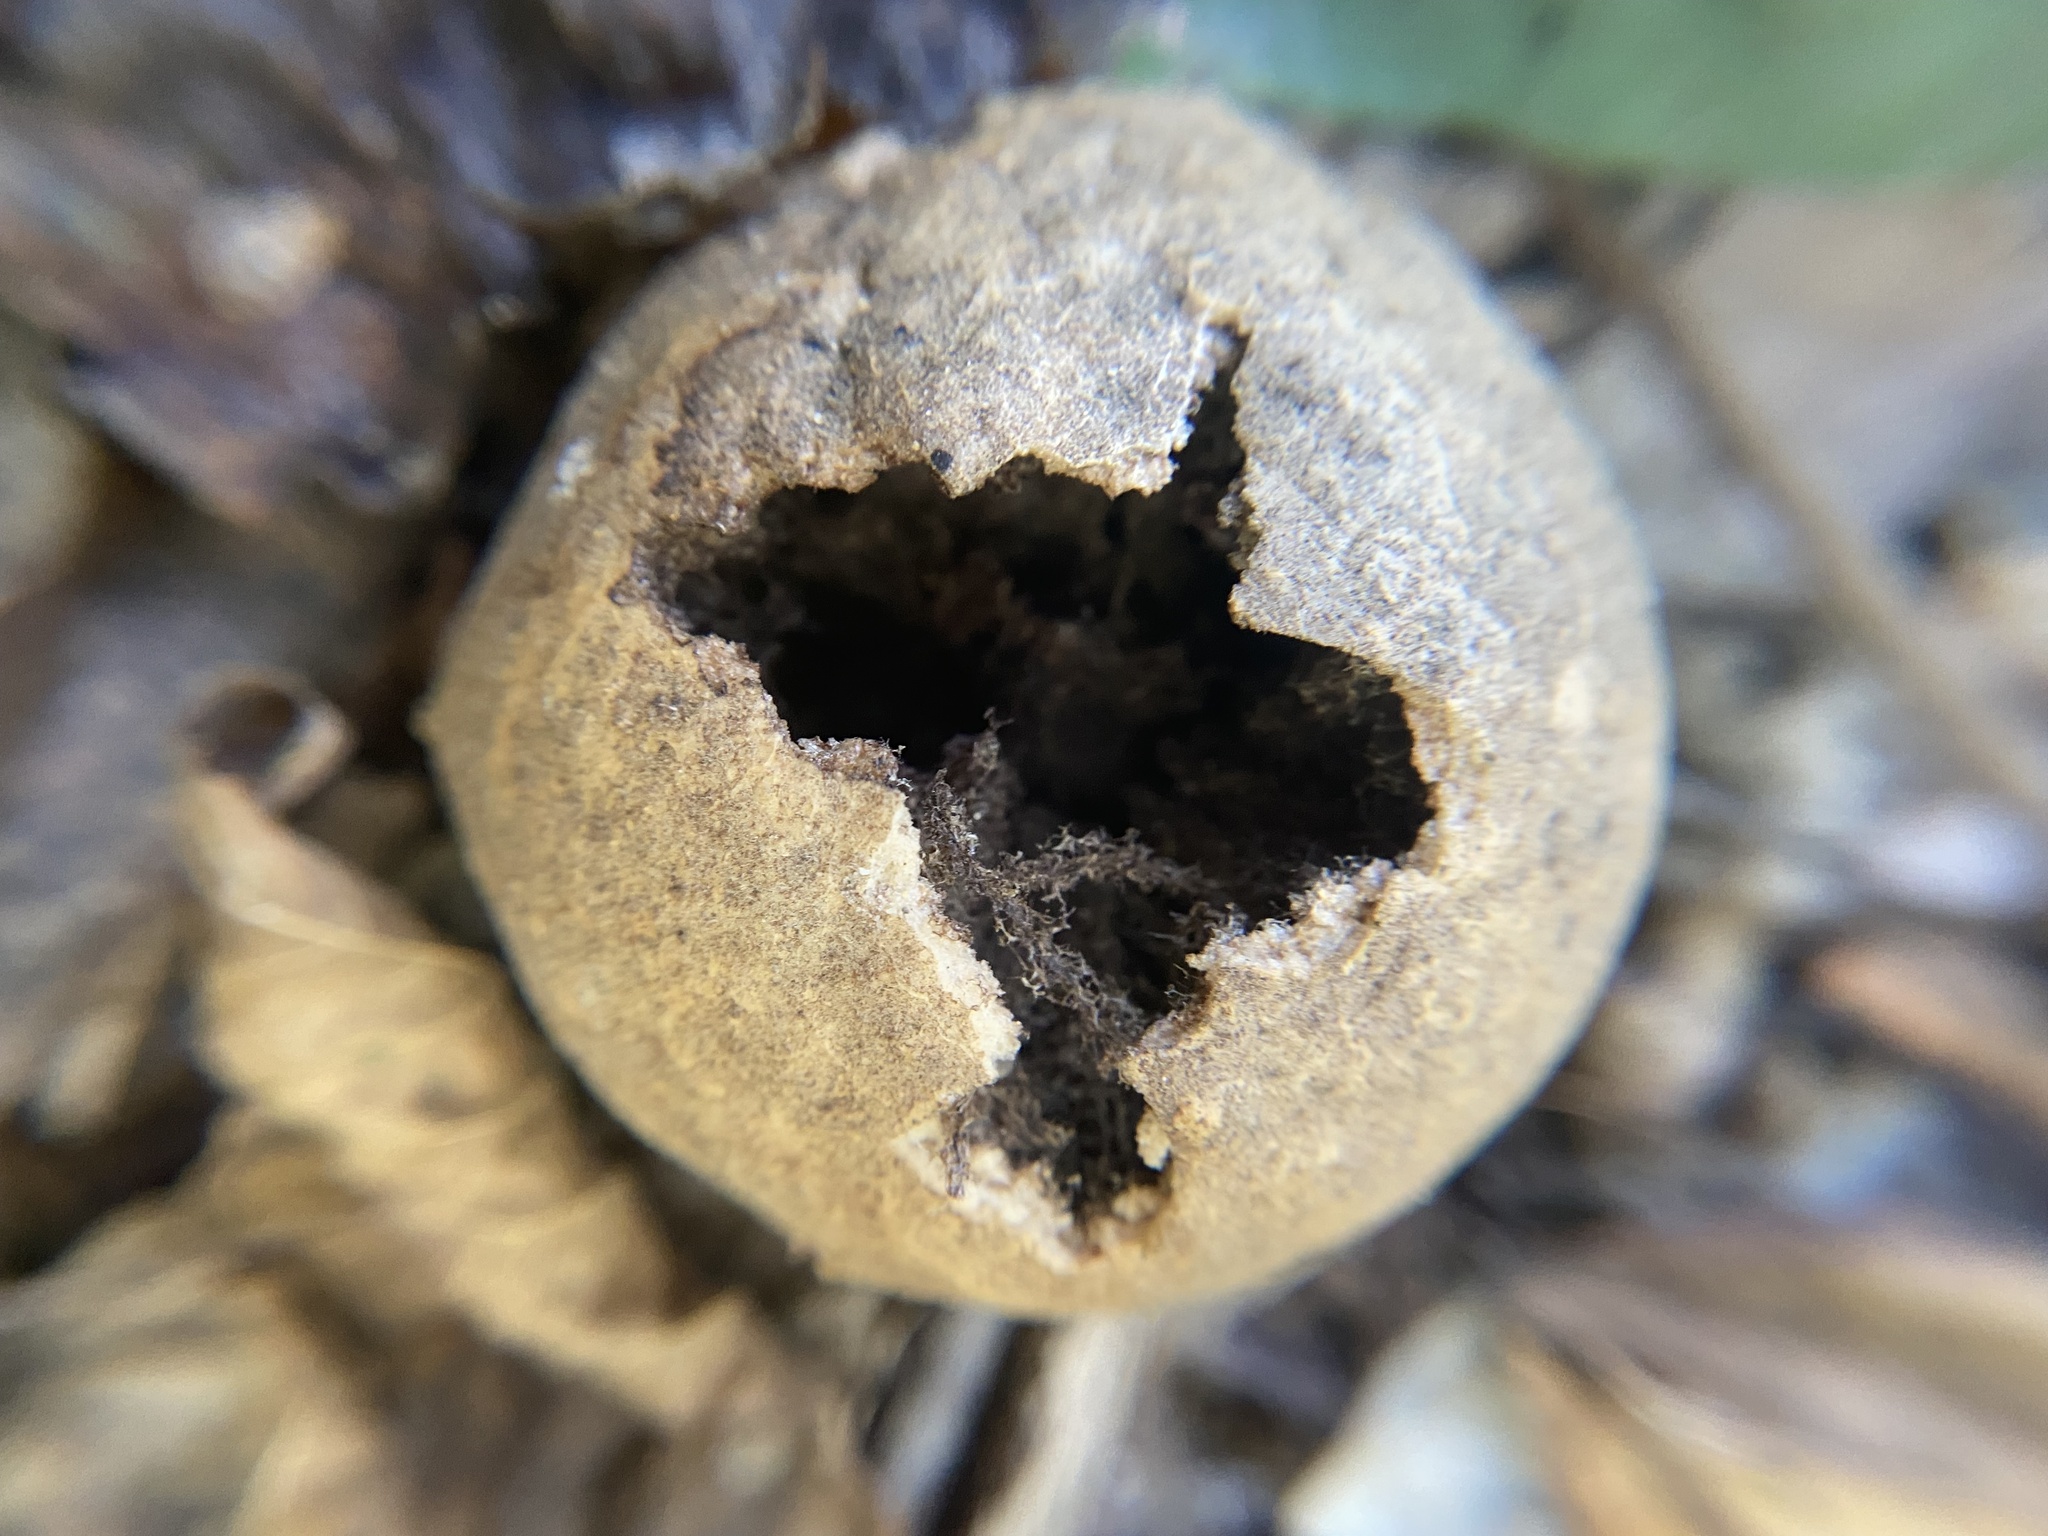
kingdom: Animalia
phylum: Arthropoda
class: Insecta
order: Hymenoptera
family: Cynipidae
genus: Amphibolips
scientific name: Amphibolips
